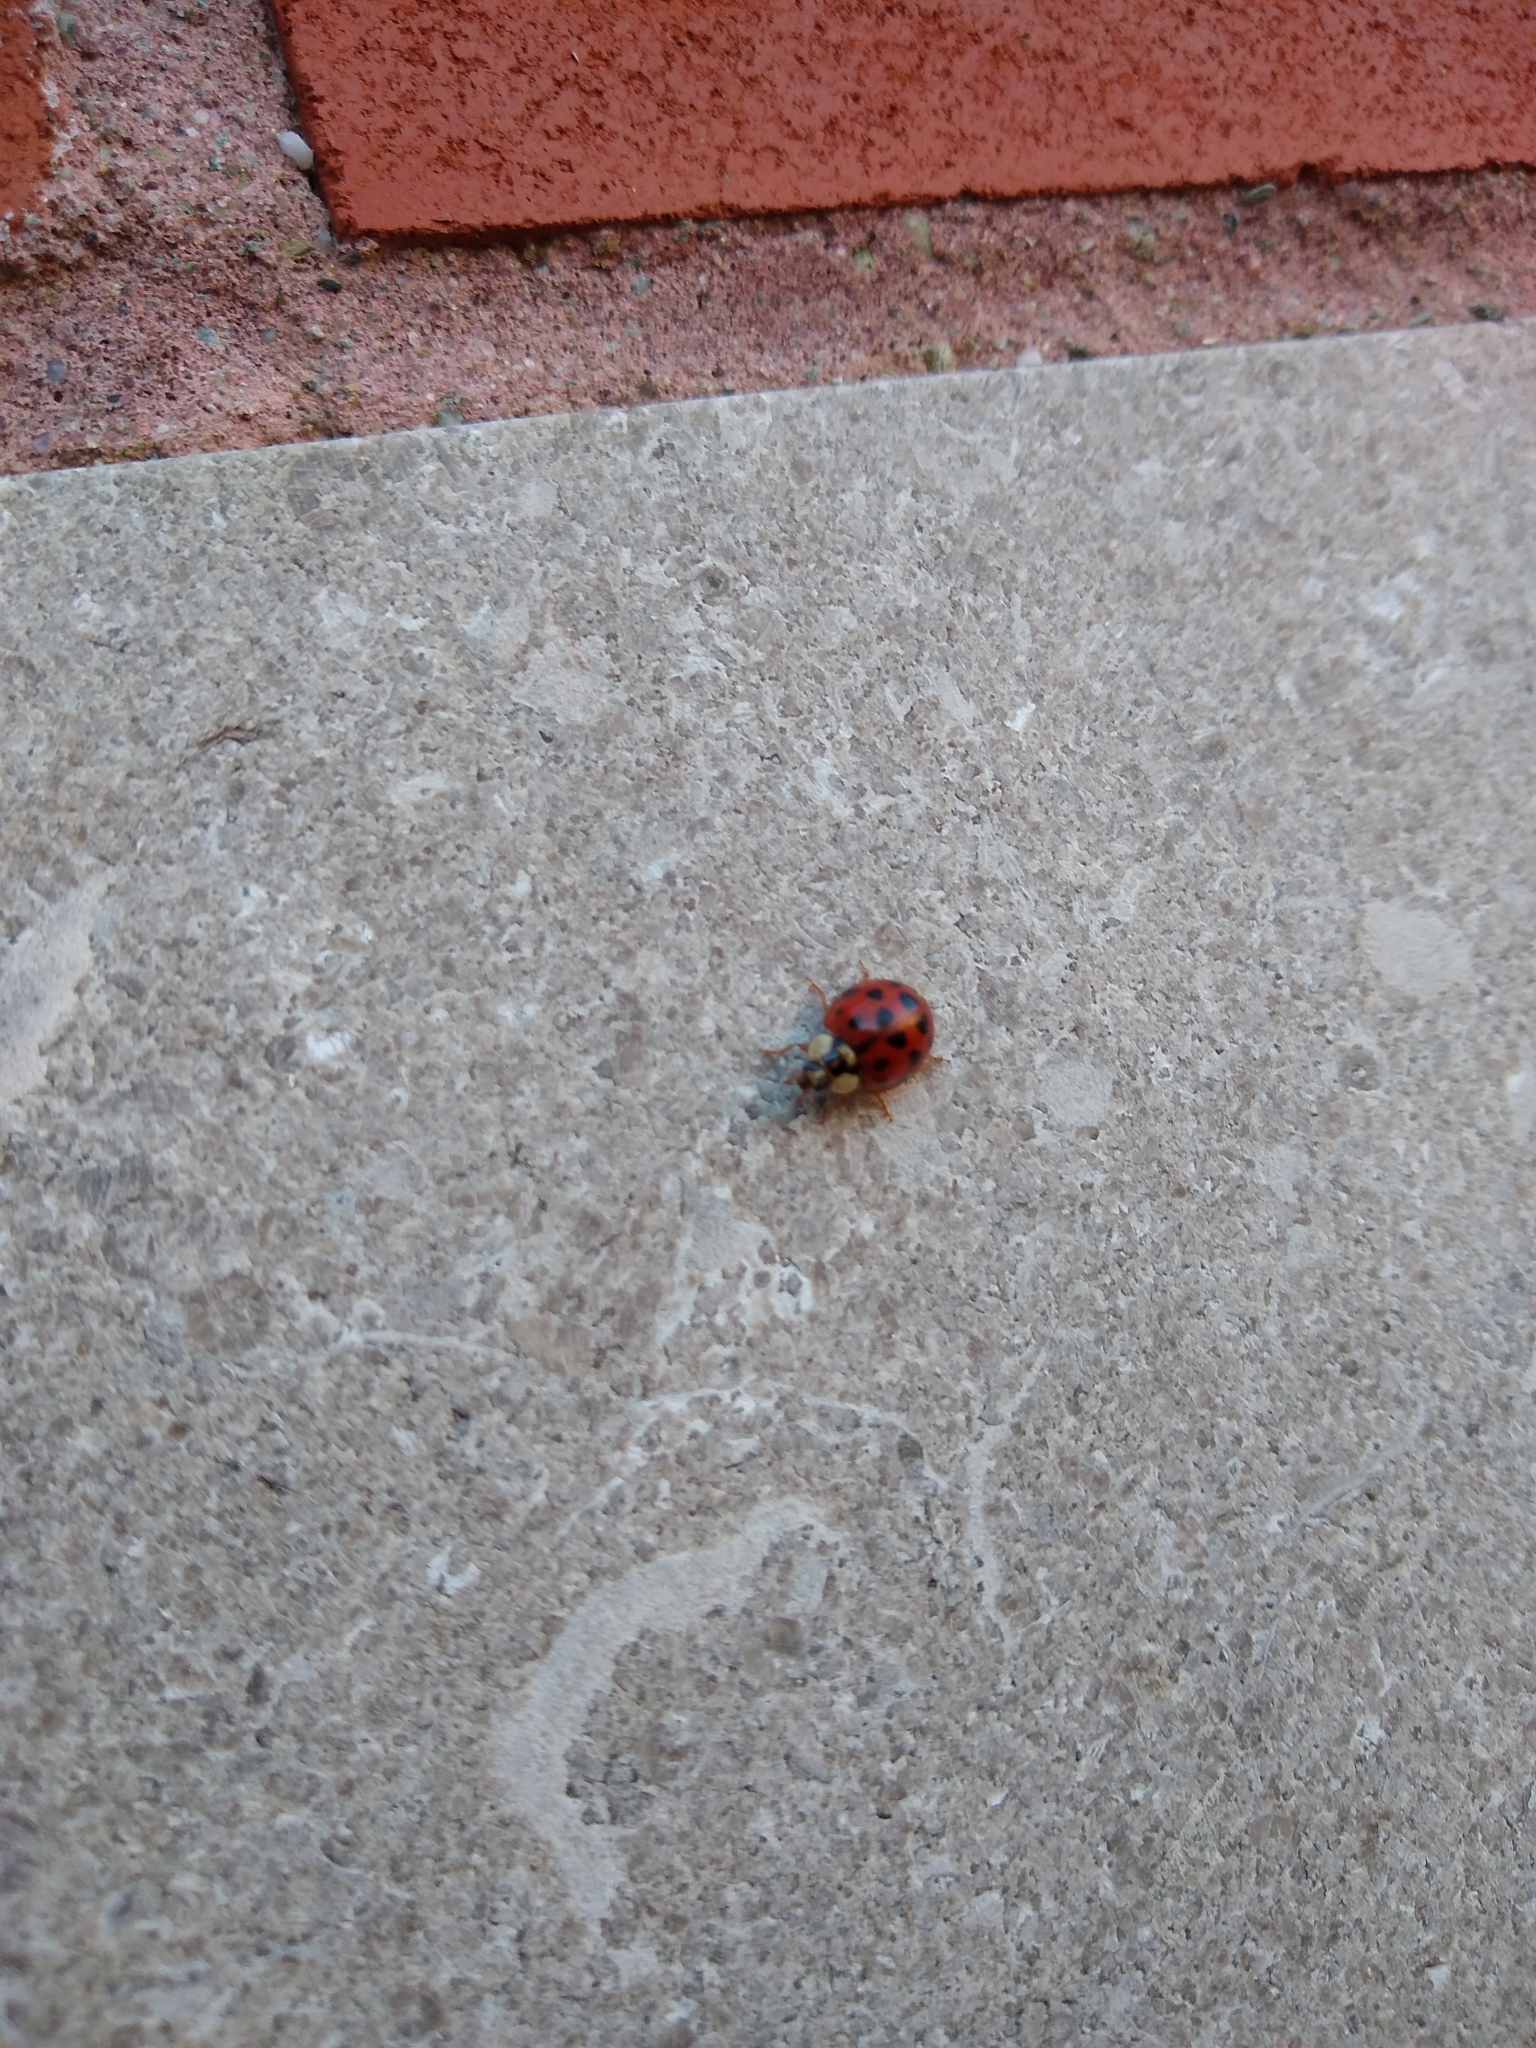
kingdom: Animalia
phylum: Arthropoda
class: Insecta
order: Coleoptera
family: Coccinellidae
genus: Harmonia
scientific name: Harmonia axyridis
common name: Harlequin ladybird
